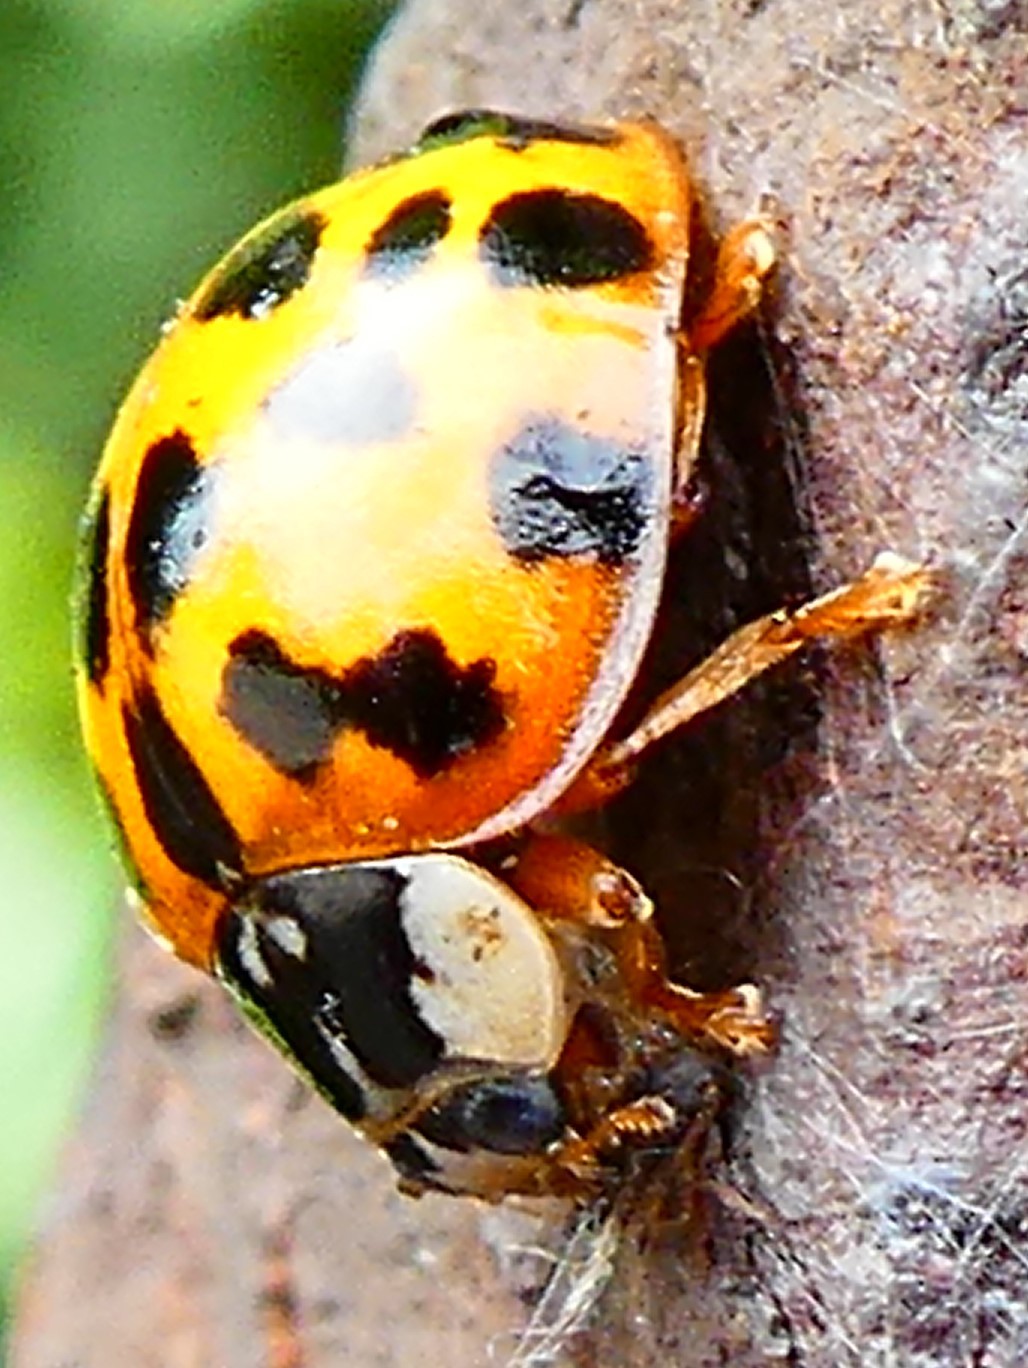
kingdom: Animalia
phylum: Arthropoda
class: Insecta
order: Coleoptera
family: Coccinellidae
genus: Harmonia
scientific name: Harmonia axyridis
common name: Harlequin ladybird
